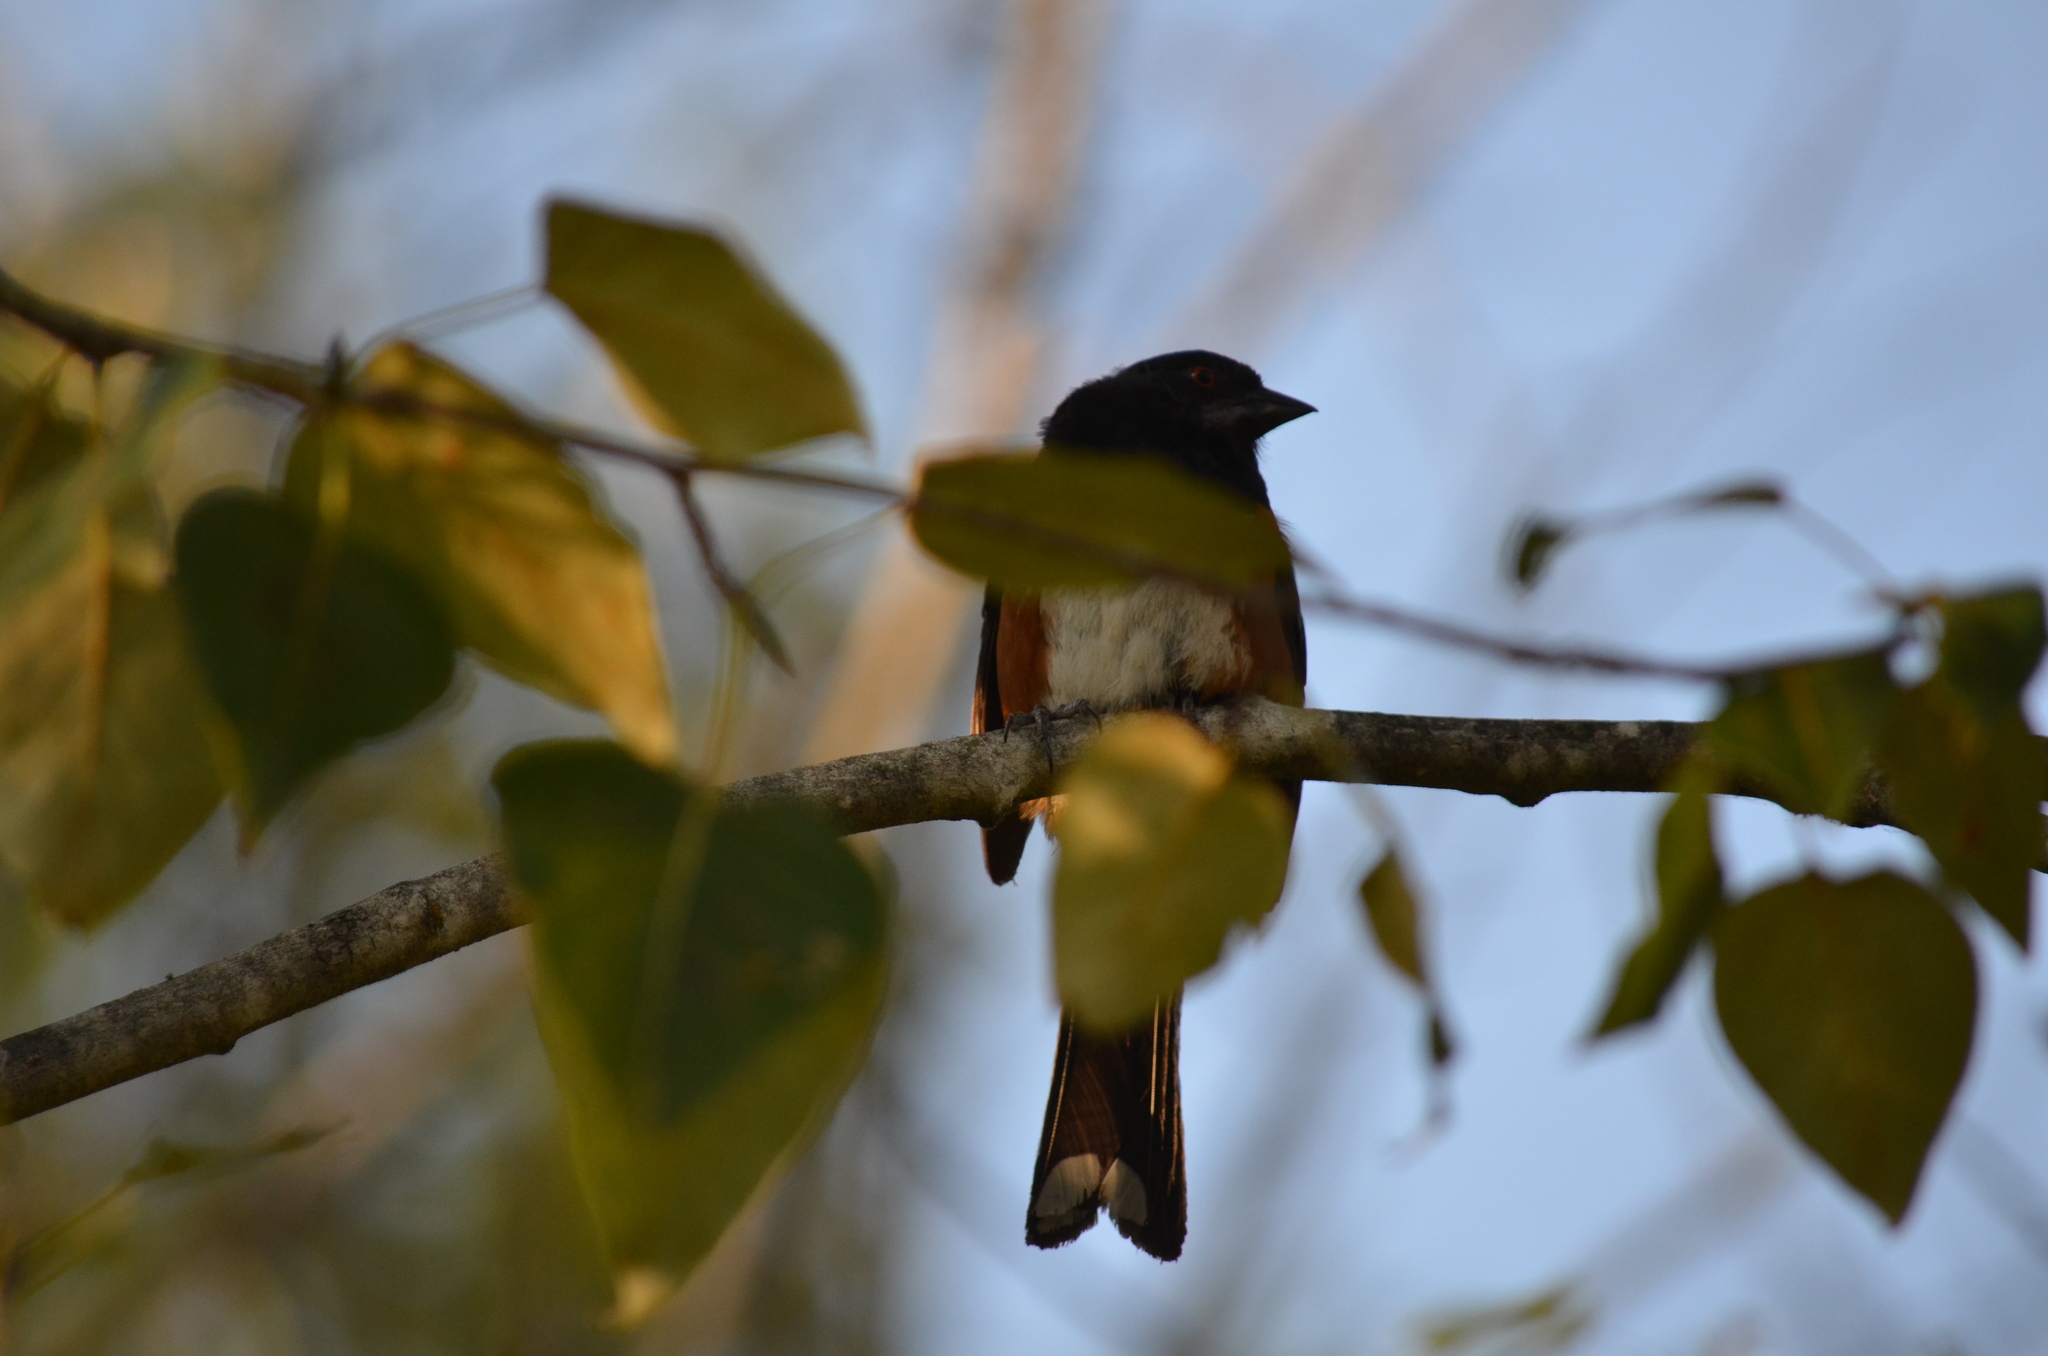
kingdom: Animalia
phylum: Chordata
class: Aves
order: Passeriformes
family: Passerellidae
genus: Pipilo
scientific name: Pipilo maculatus
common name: Spotted towhee
